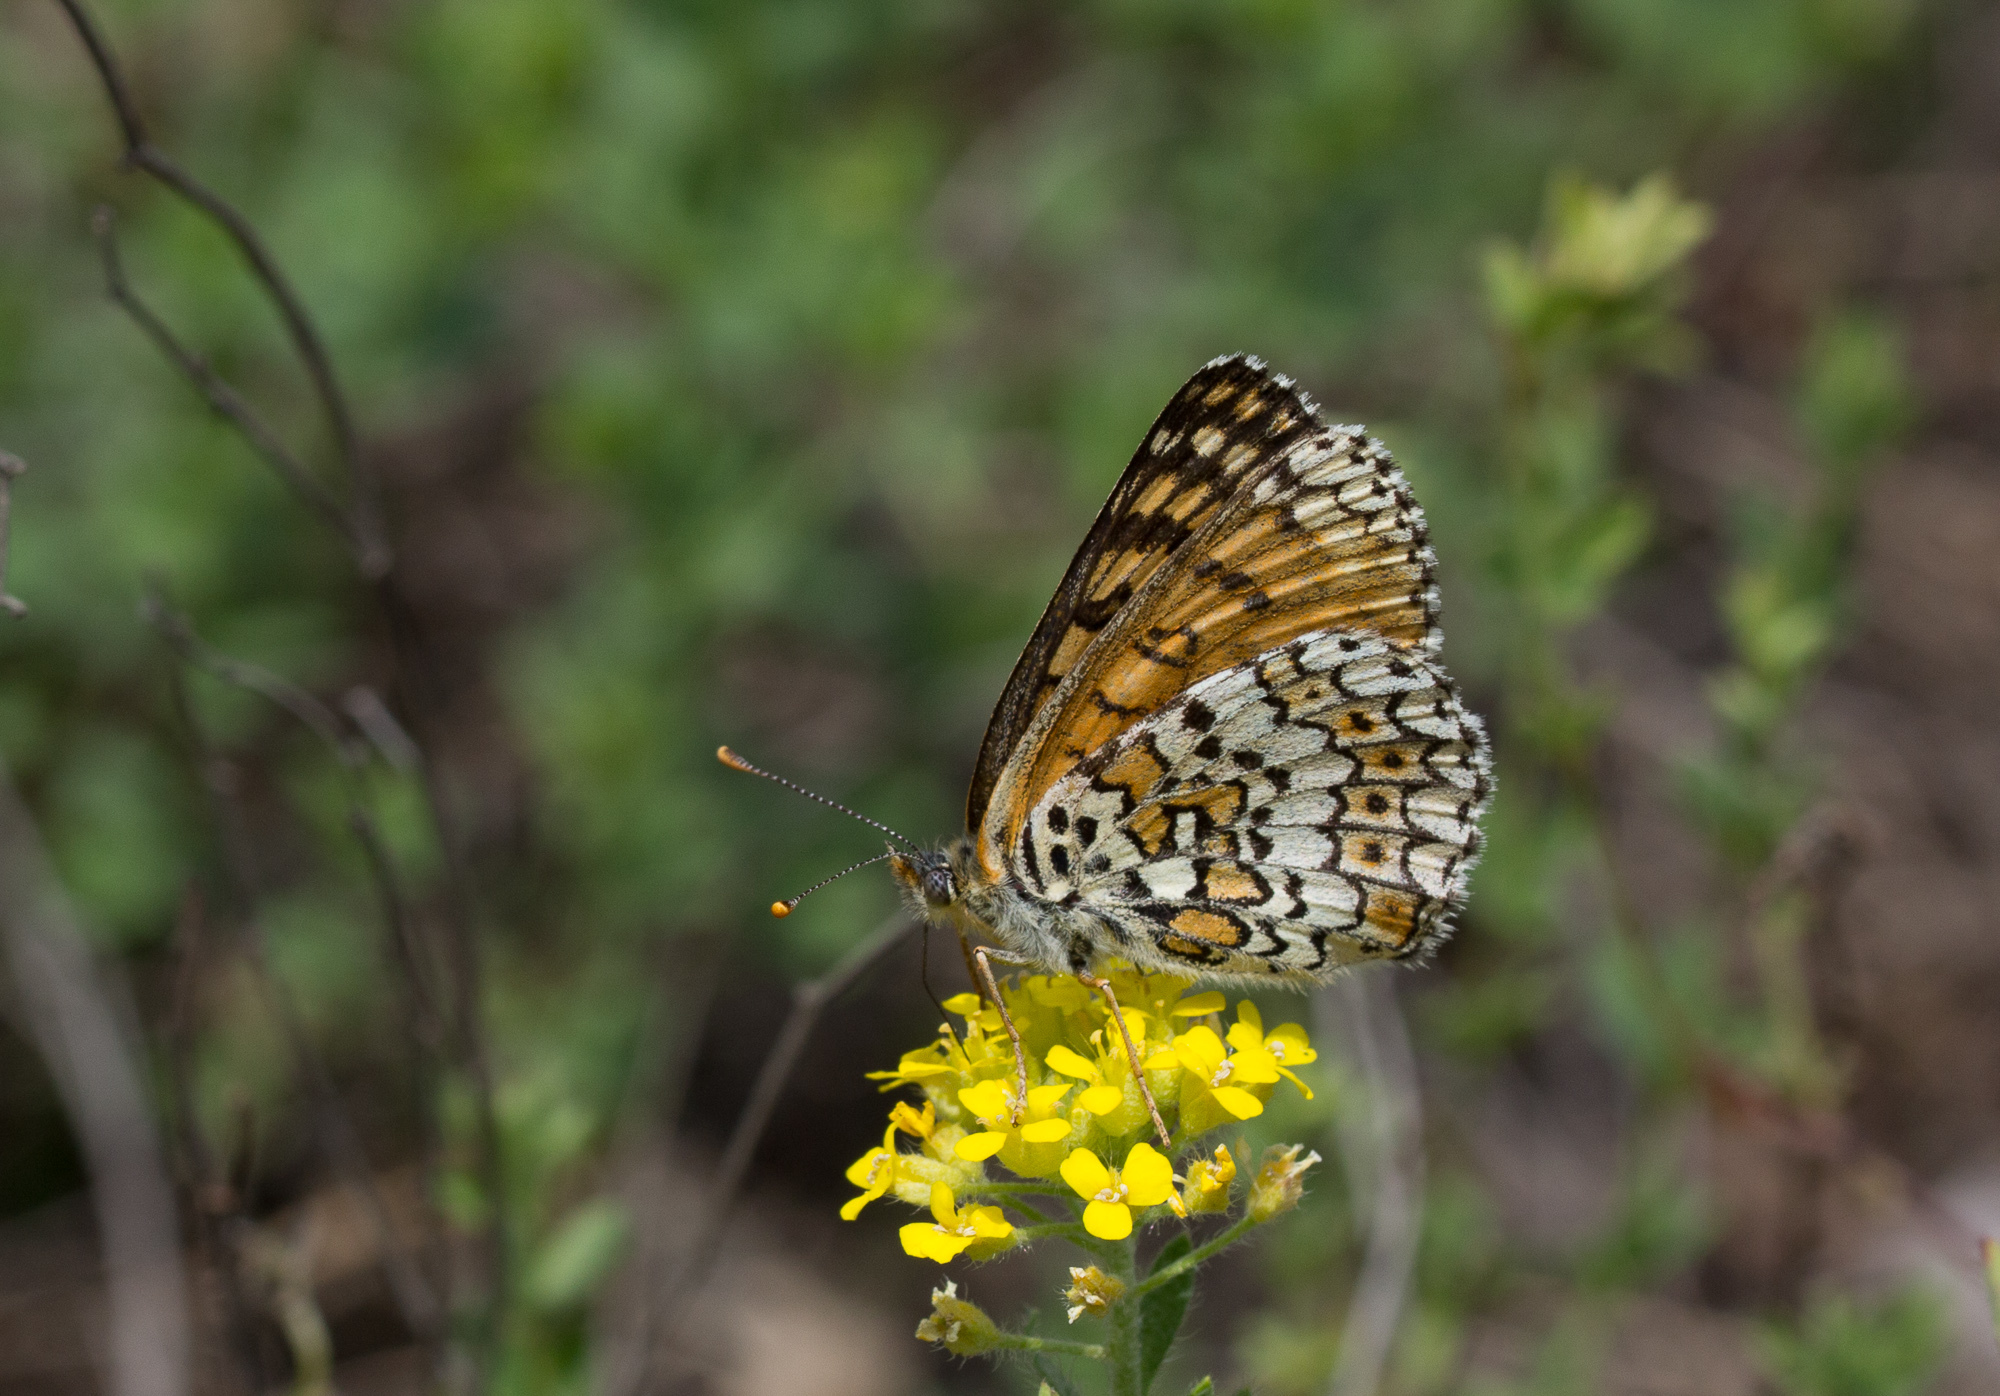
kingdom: Animalia
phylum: Arthropoda
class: Insecta
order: Lepidoptera
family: Nymphalidae
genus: Melitaea
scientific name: Melitaea cinxia
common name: Glanville fritillary
